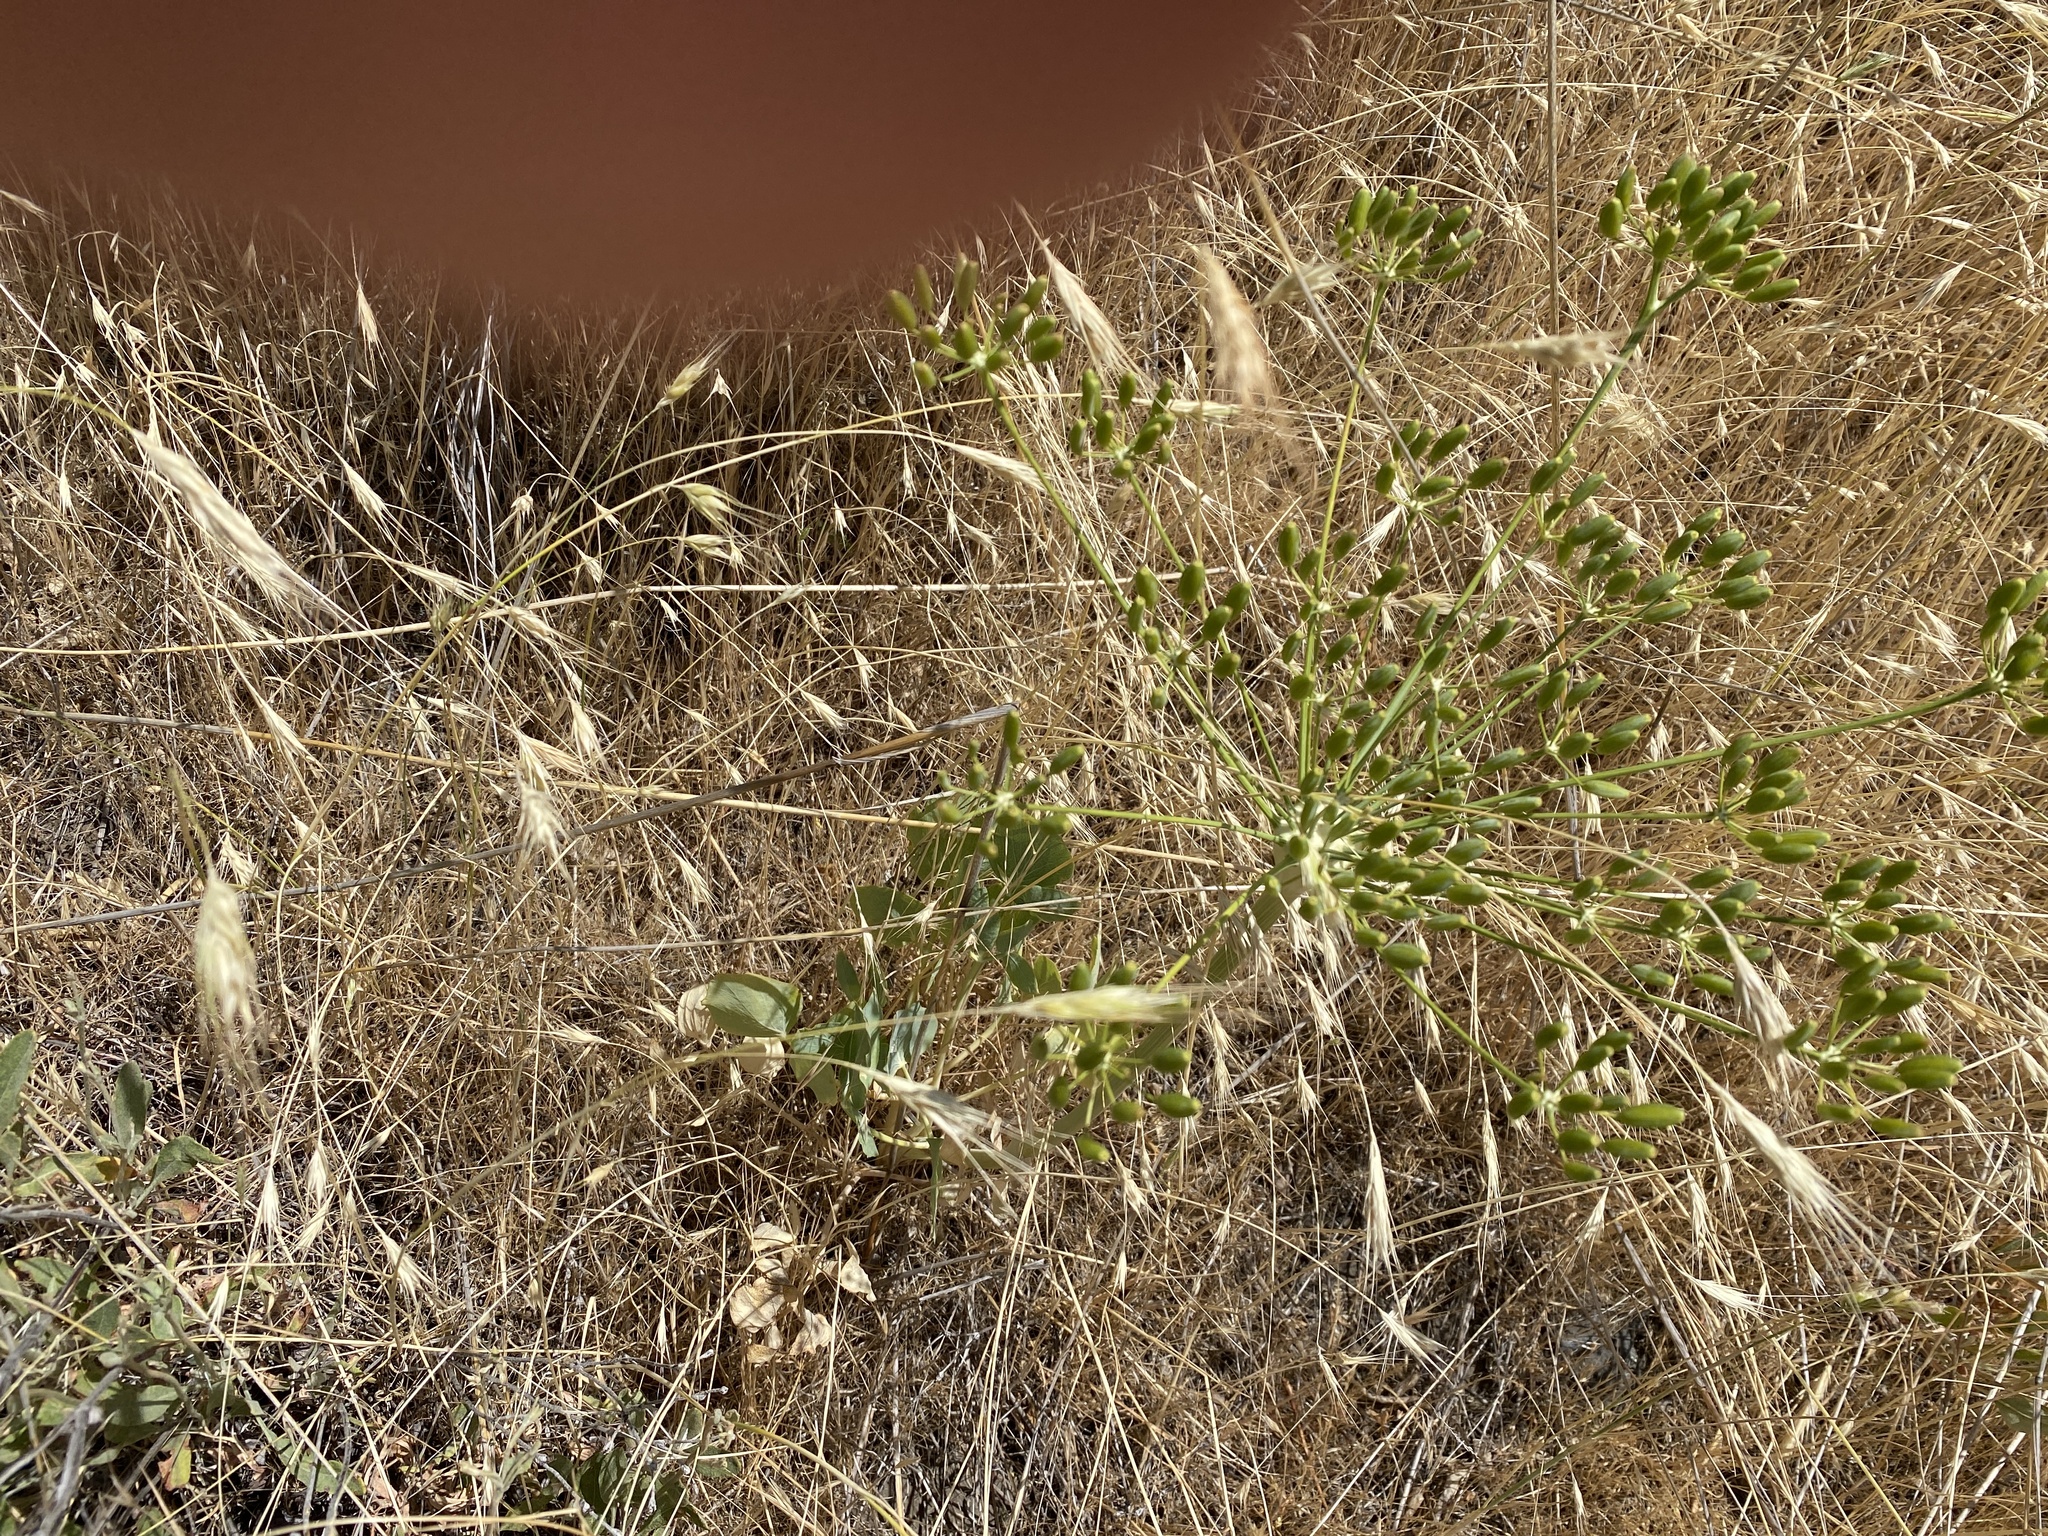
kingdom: Plantae
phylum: Tracheophyta
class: Magnoliopsida
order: Apiales
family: Apiaceae
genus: Lomatium
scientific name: Lomatium nudicaule
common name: Pestle lomatium
